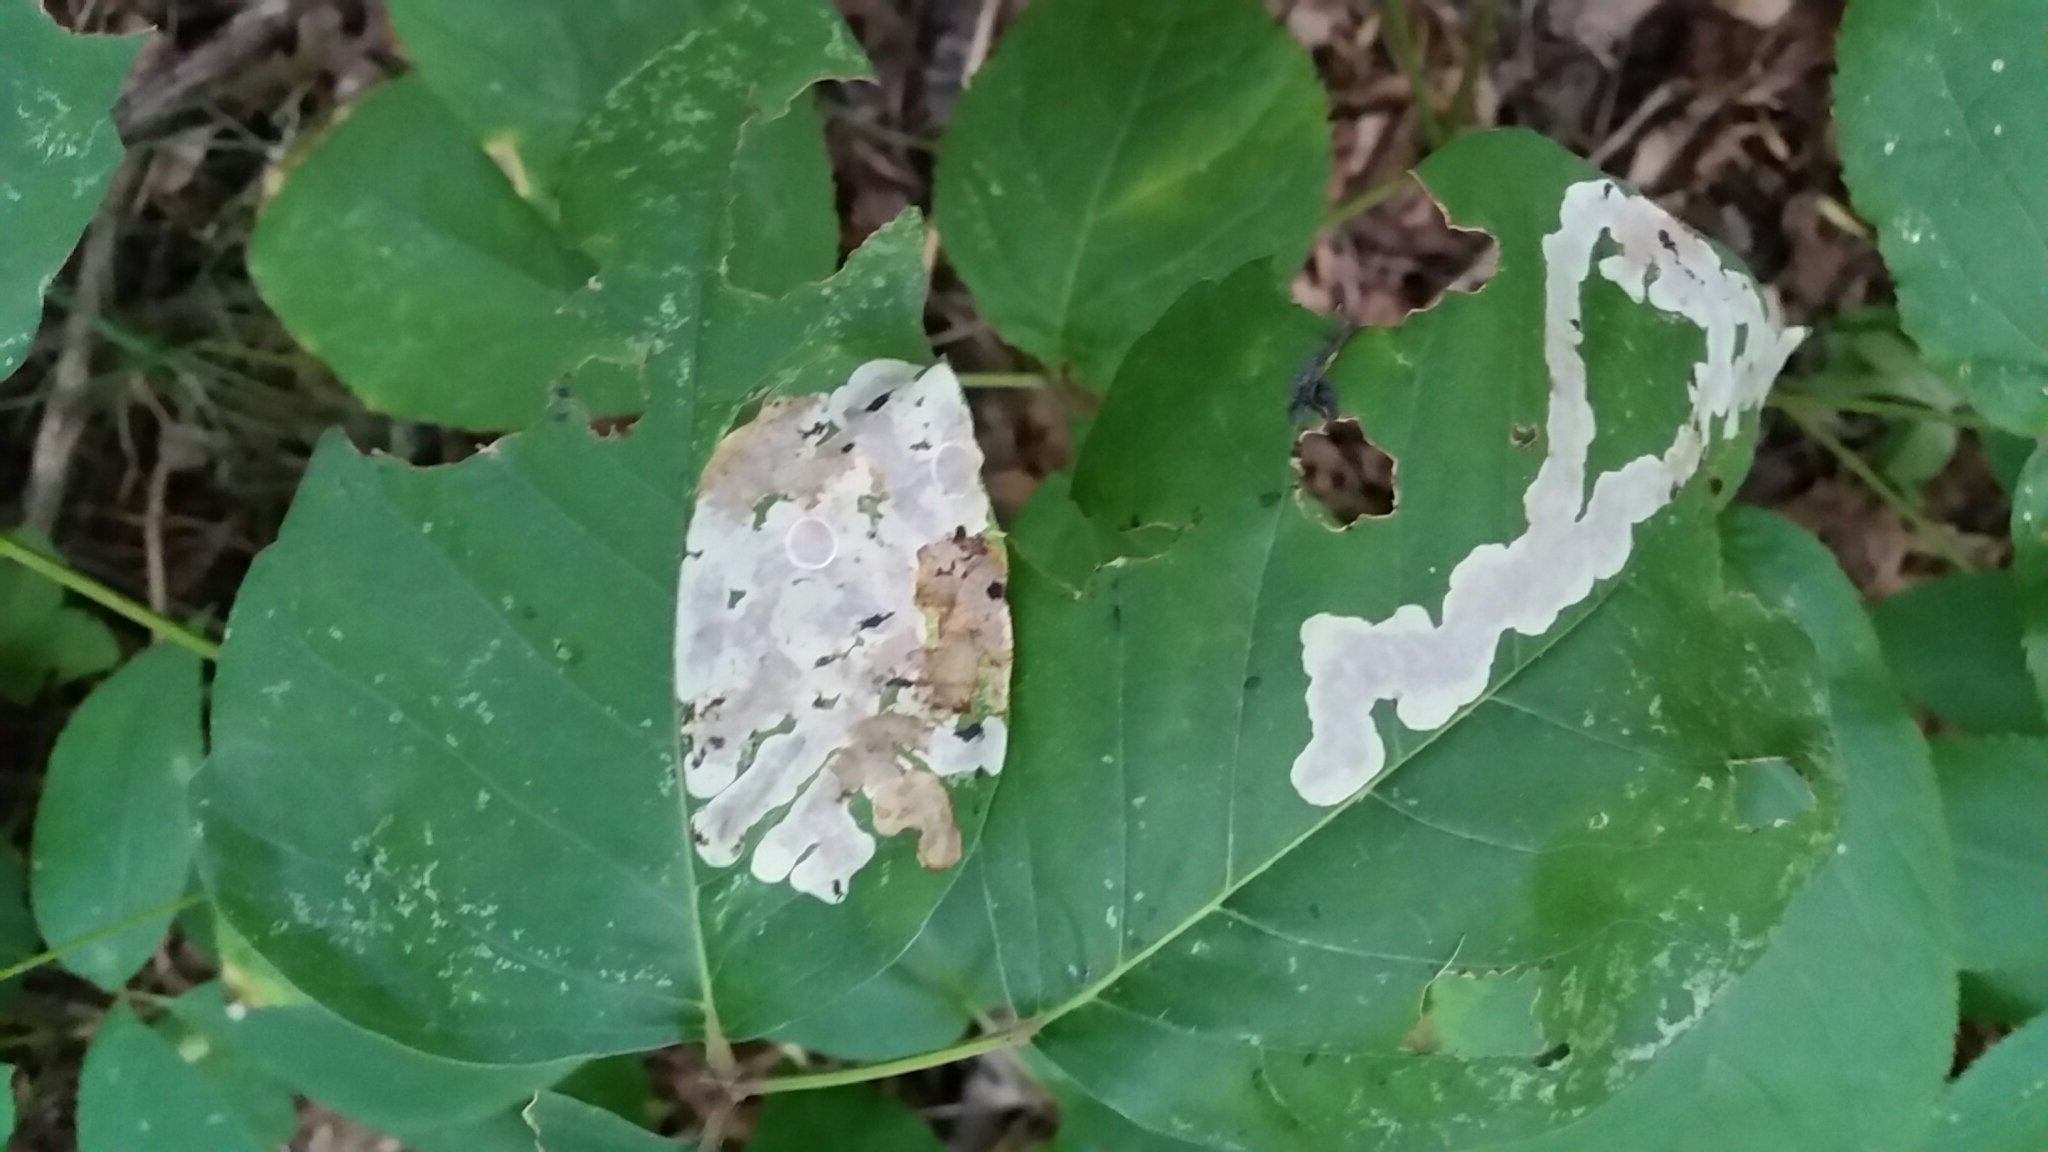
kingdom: Animalia
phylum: Arthropoda
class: Insecta
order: Lepidoptera
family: Gracillariidae
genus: Cameraria
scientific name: Cameraria guttifinitella
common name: Poison ivy leaf-miner moth
